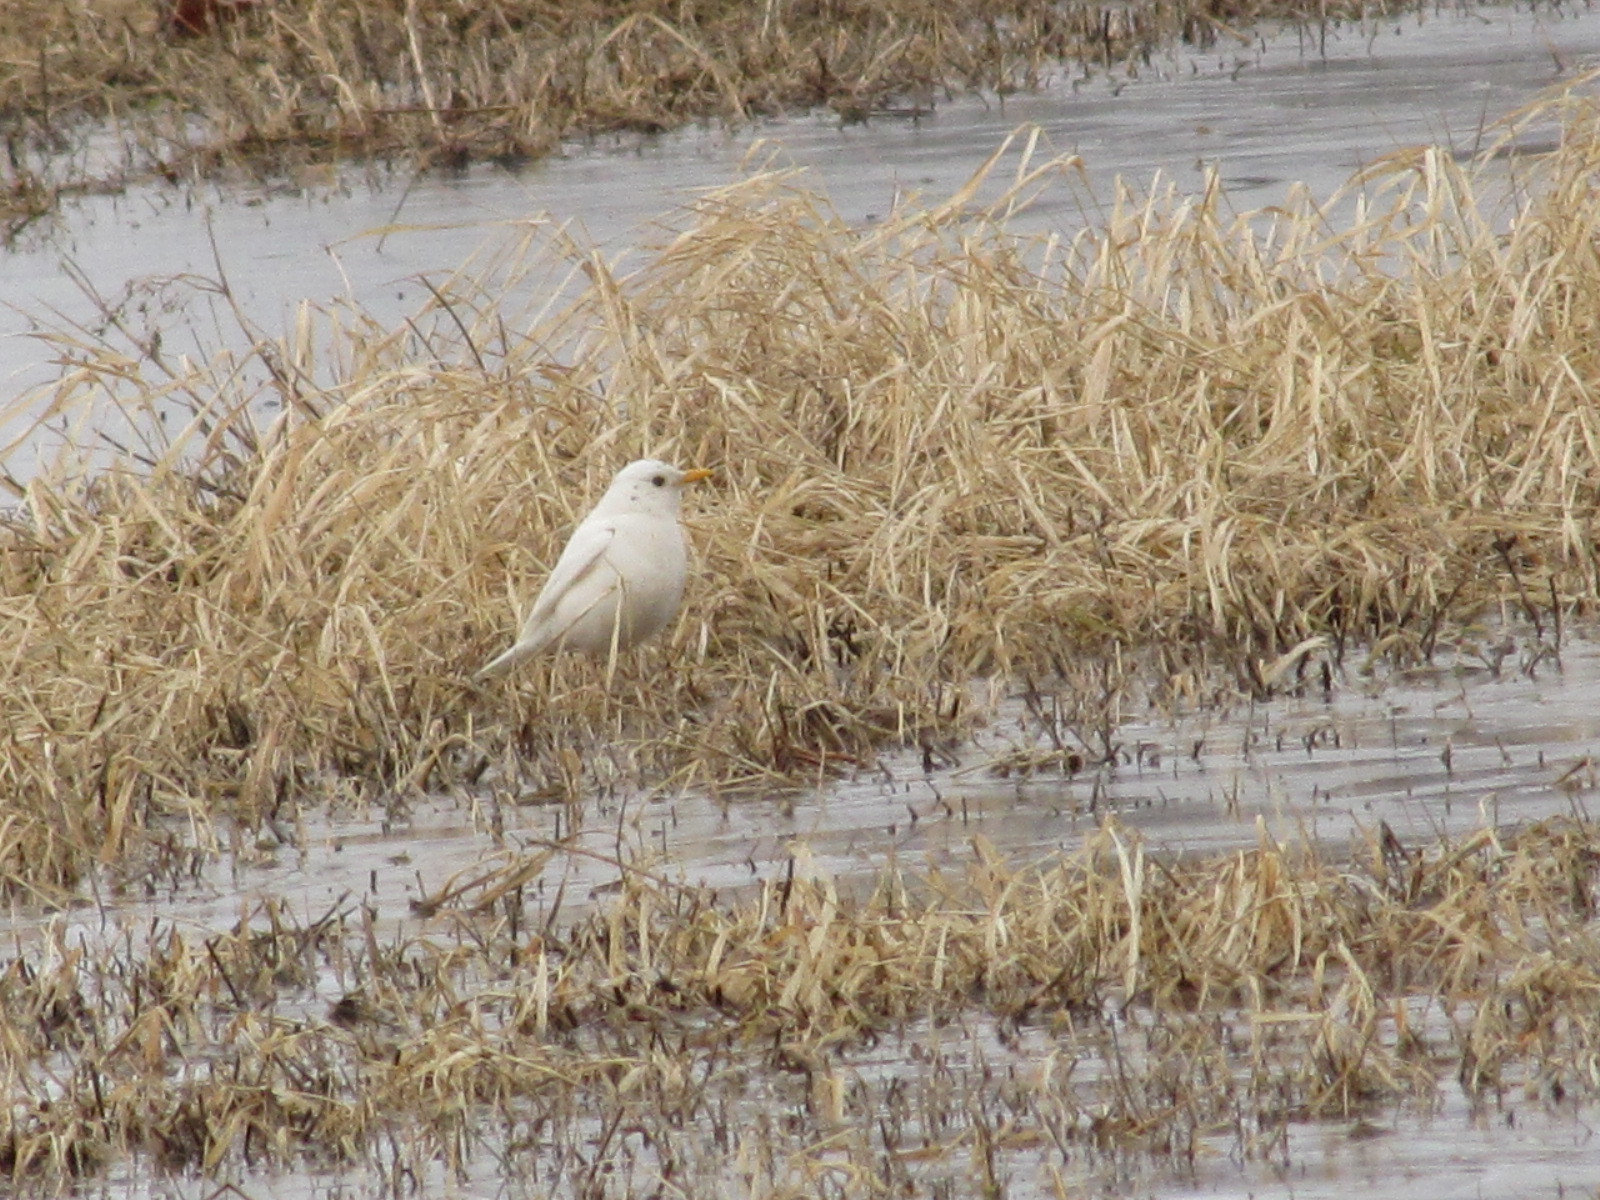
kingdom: Animalia
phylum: Chordata
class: Aves
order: Passeriformes
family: Turdidae
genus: Turdus
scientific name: Turdus migratorius
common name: American robin
